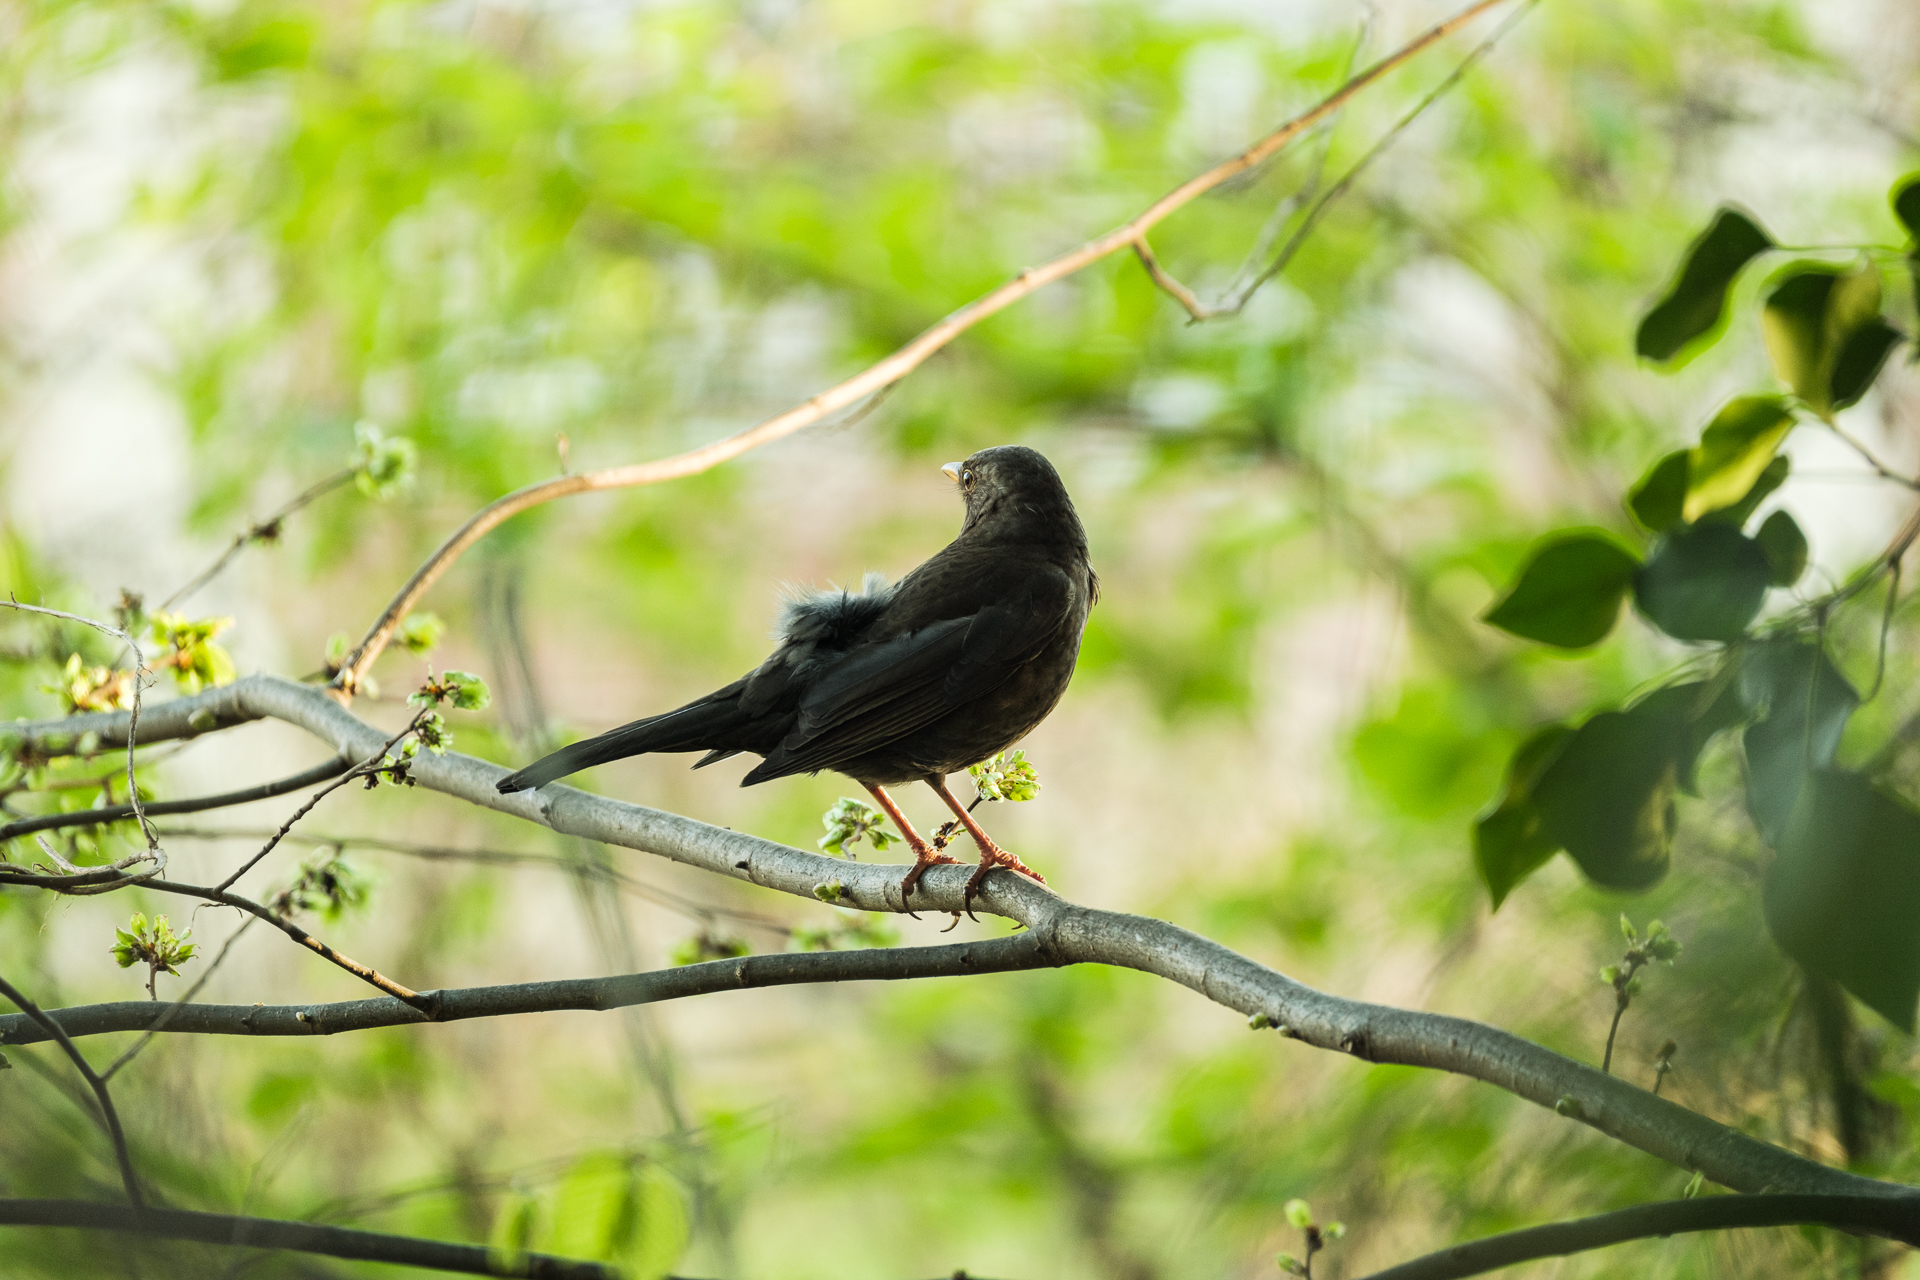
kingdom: Animalia
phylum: Chordata
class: Aves
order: Passeriformes
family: Turdidae
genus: Turdus
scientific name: Turdus merula
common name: Common blackbird
